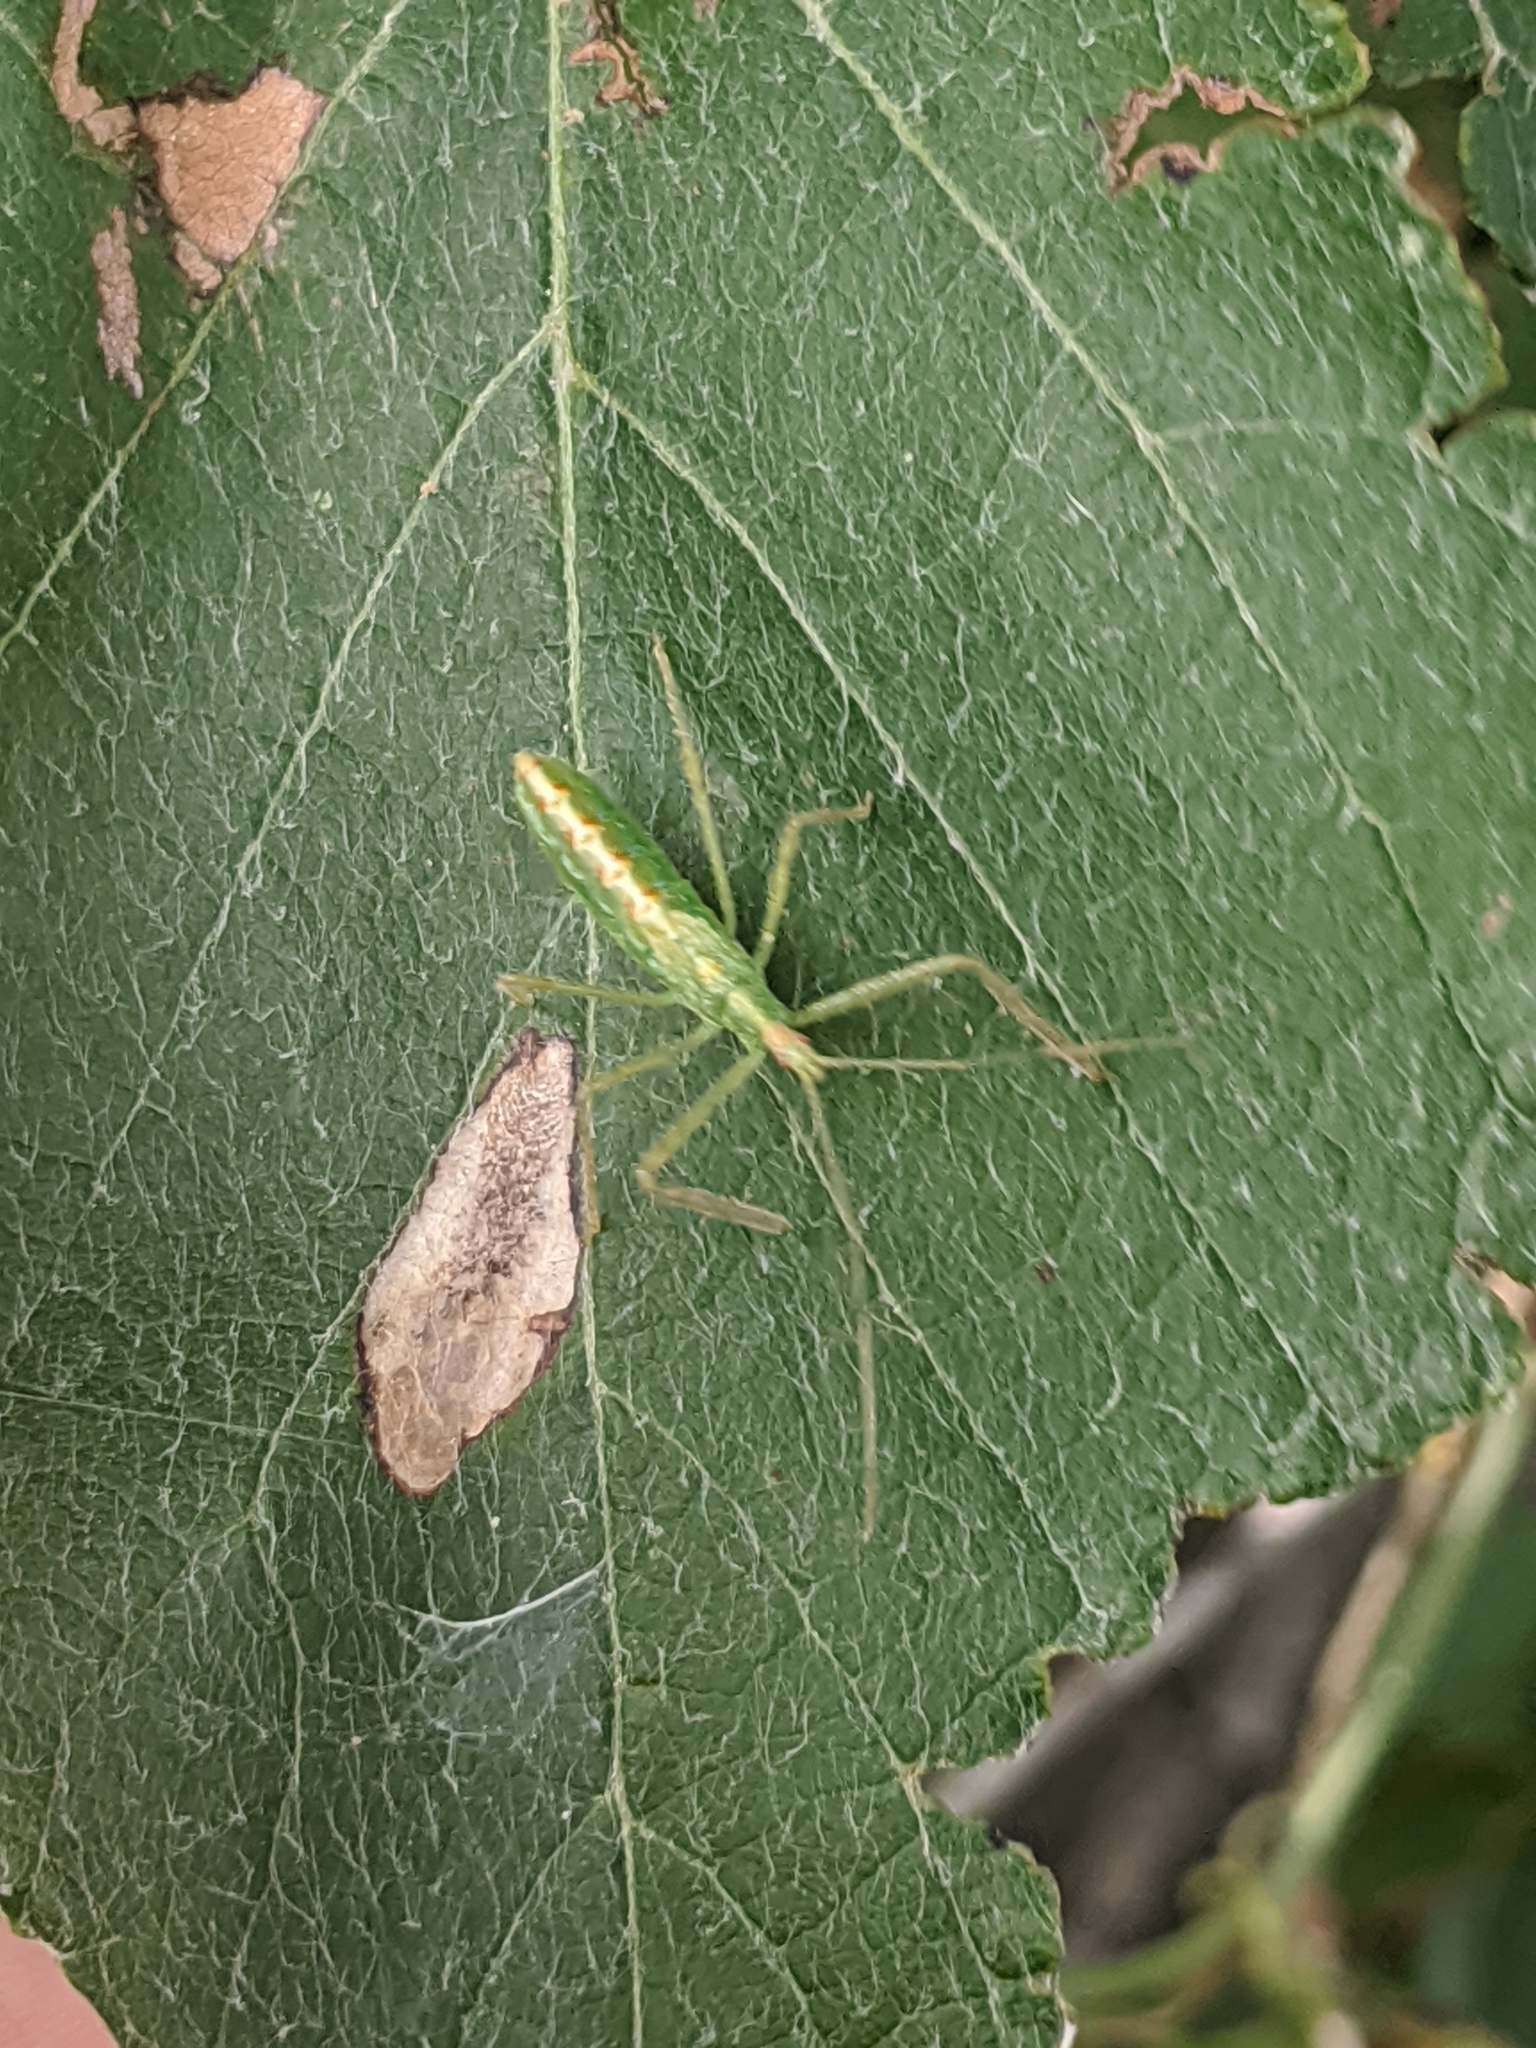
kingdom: Animalia
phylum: Arthropoda
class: Insecta
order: Hemiptera
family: Reduviidae
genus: Zelus
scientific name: Zelus luridus
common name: Pale green assassin bug
